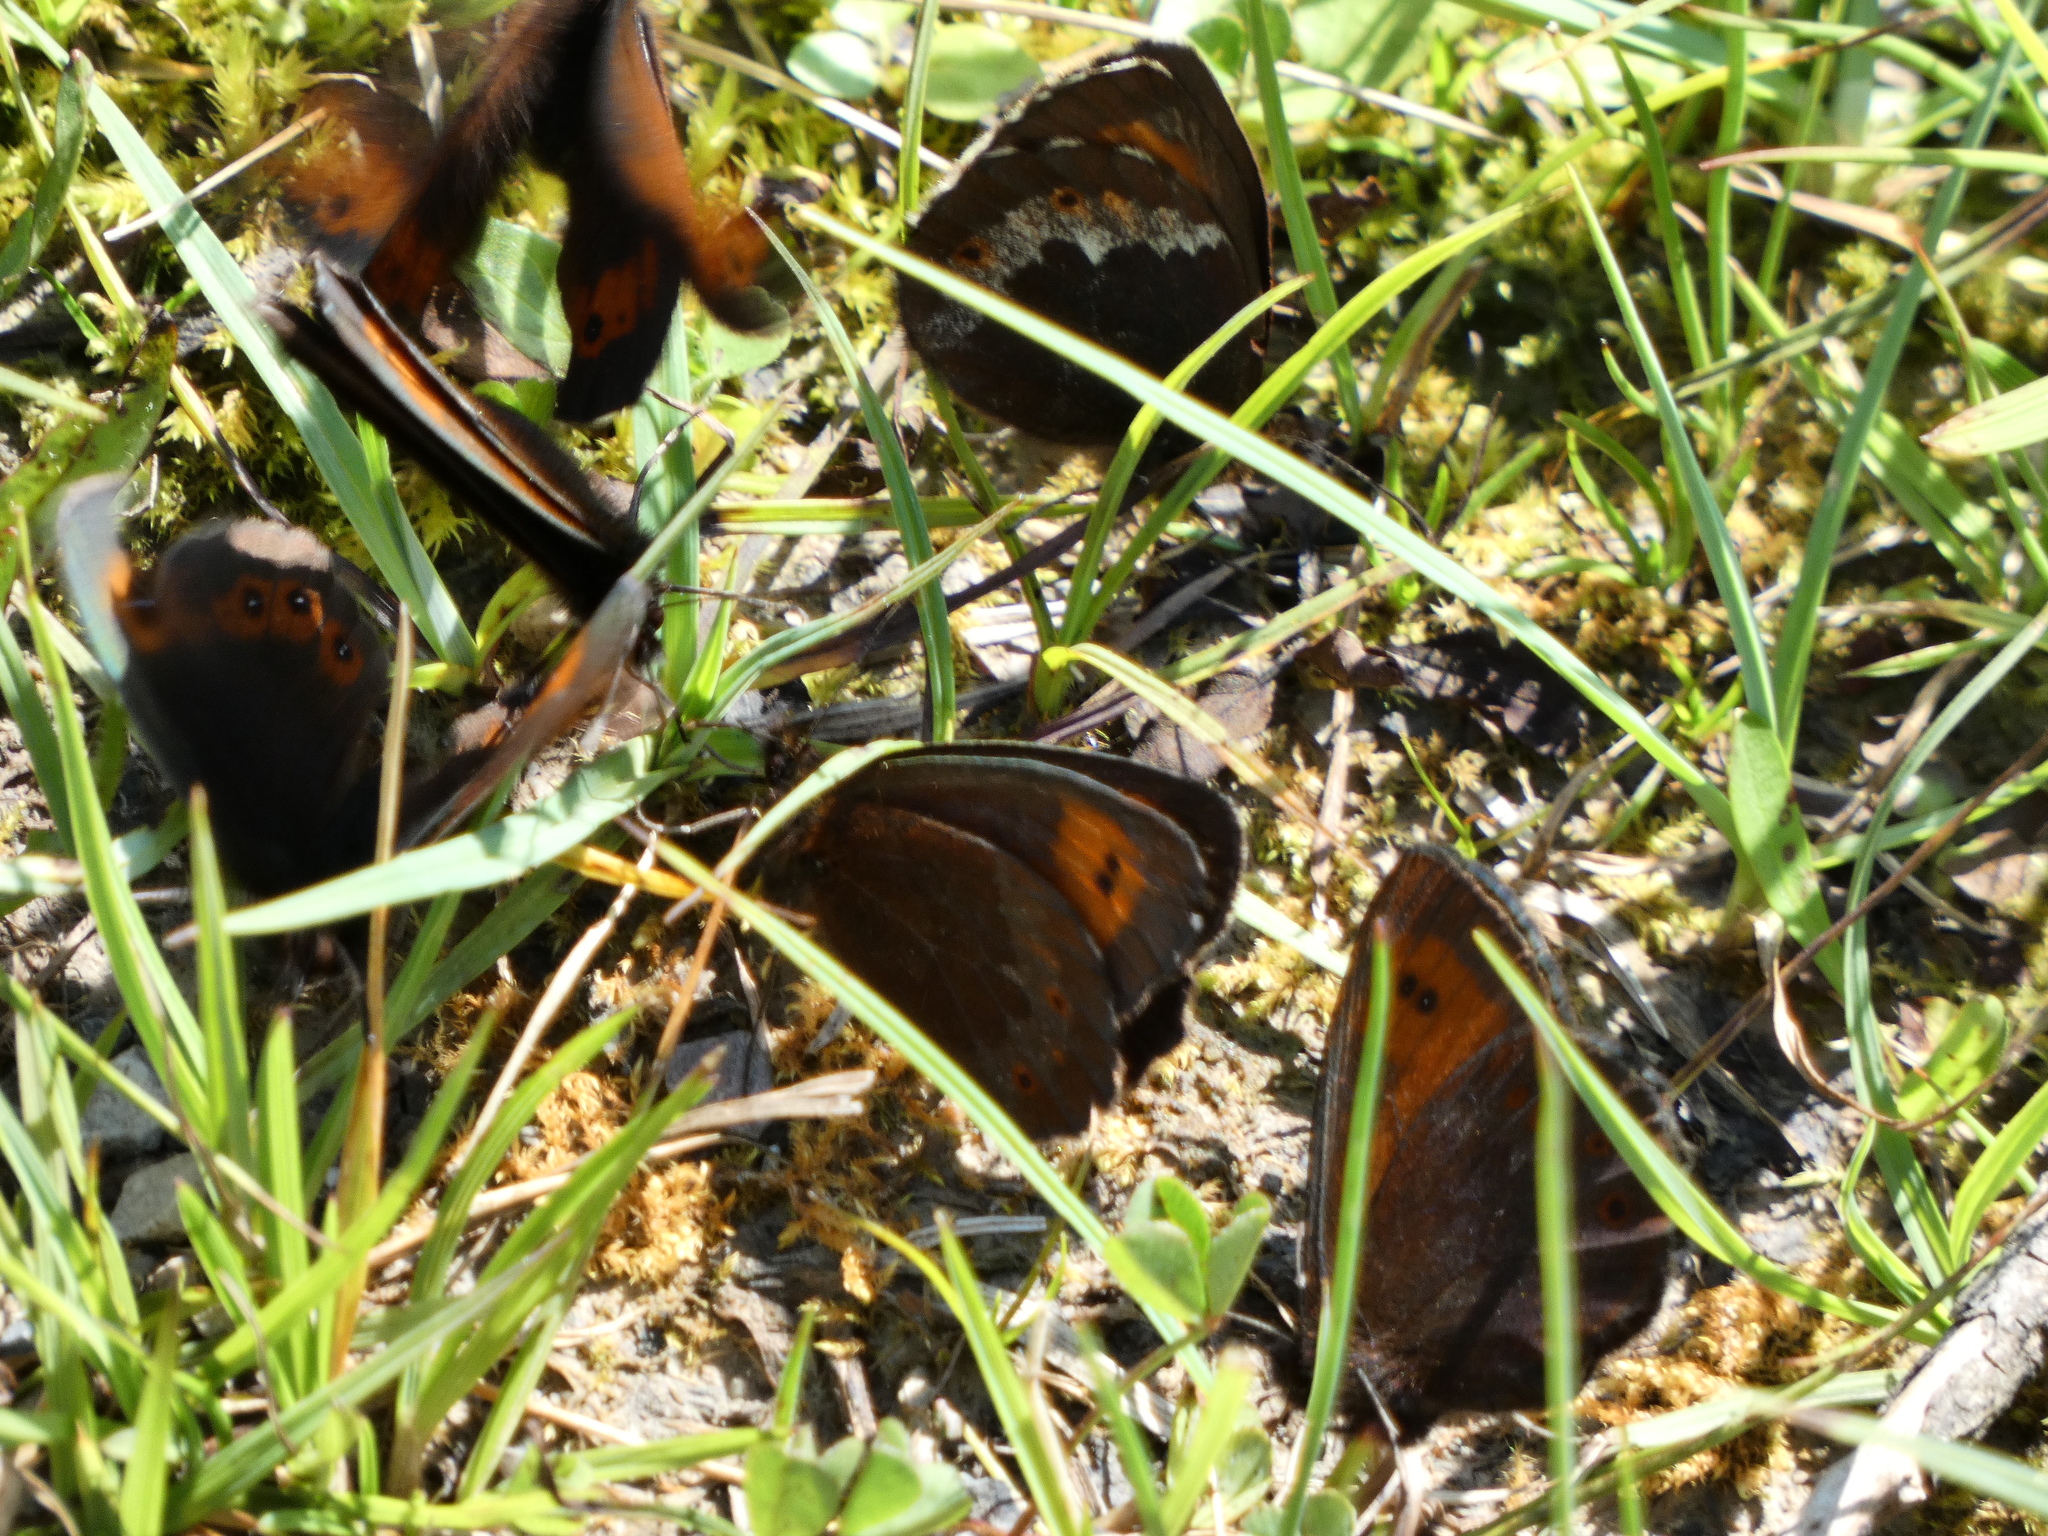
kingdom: Animalia
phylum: Arthropoda
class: Insecta
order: Lepidoptera
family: Nymphalidae
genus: Erebia
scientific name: Erebia euryale
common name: Large ringlet
